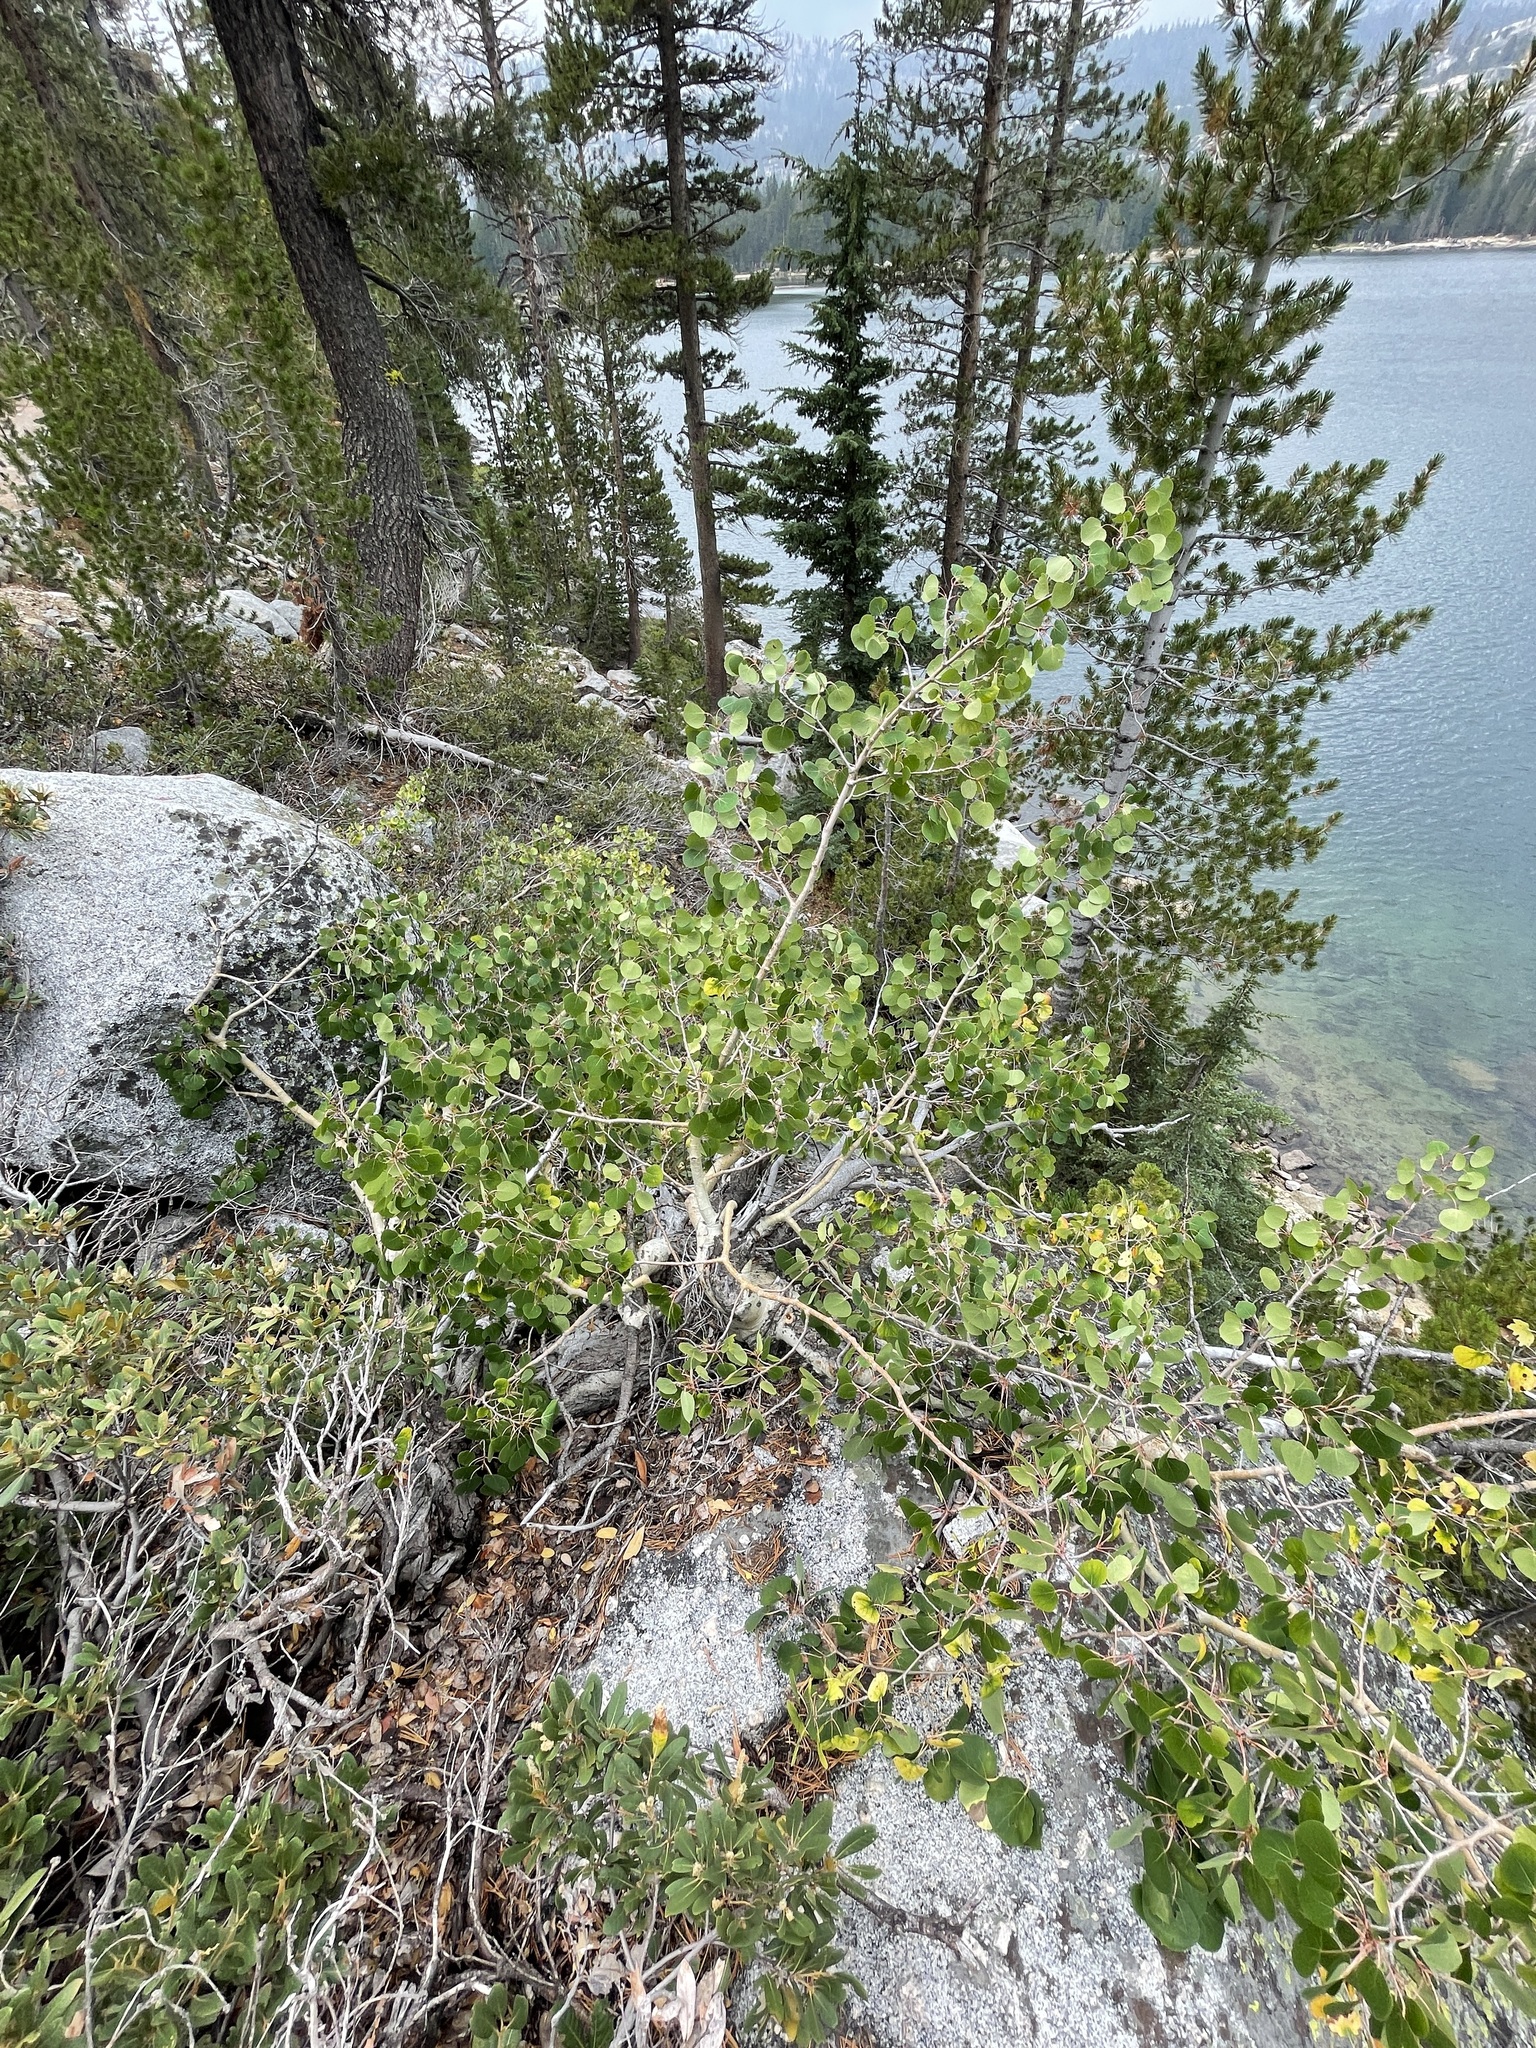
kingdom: Plantae
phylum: Tracheophyta
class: Magnoliopsida
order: Malpighiales
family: Salicaceae
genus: Populus
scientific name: Populus tremuloides
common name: Quaking aspen
